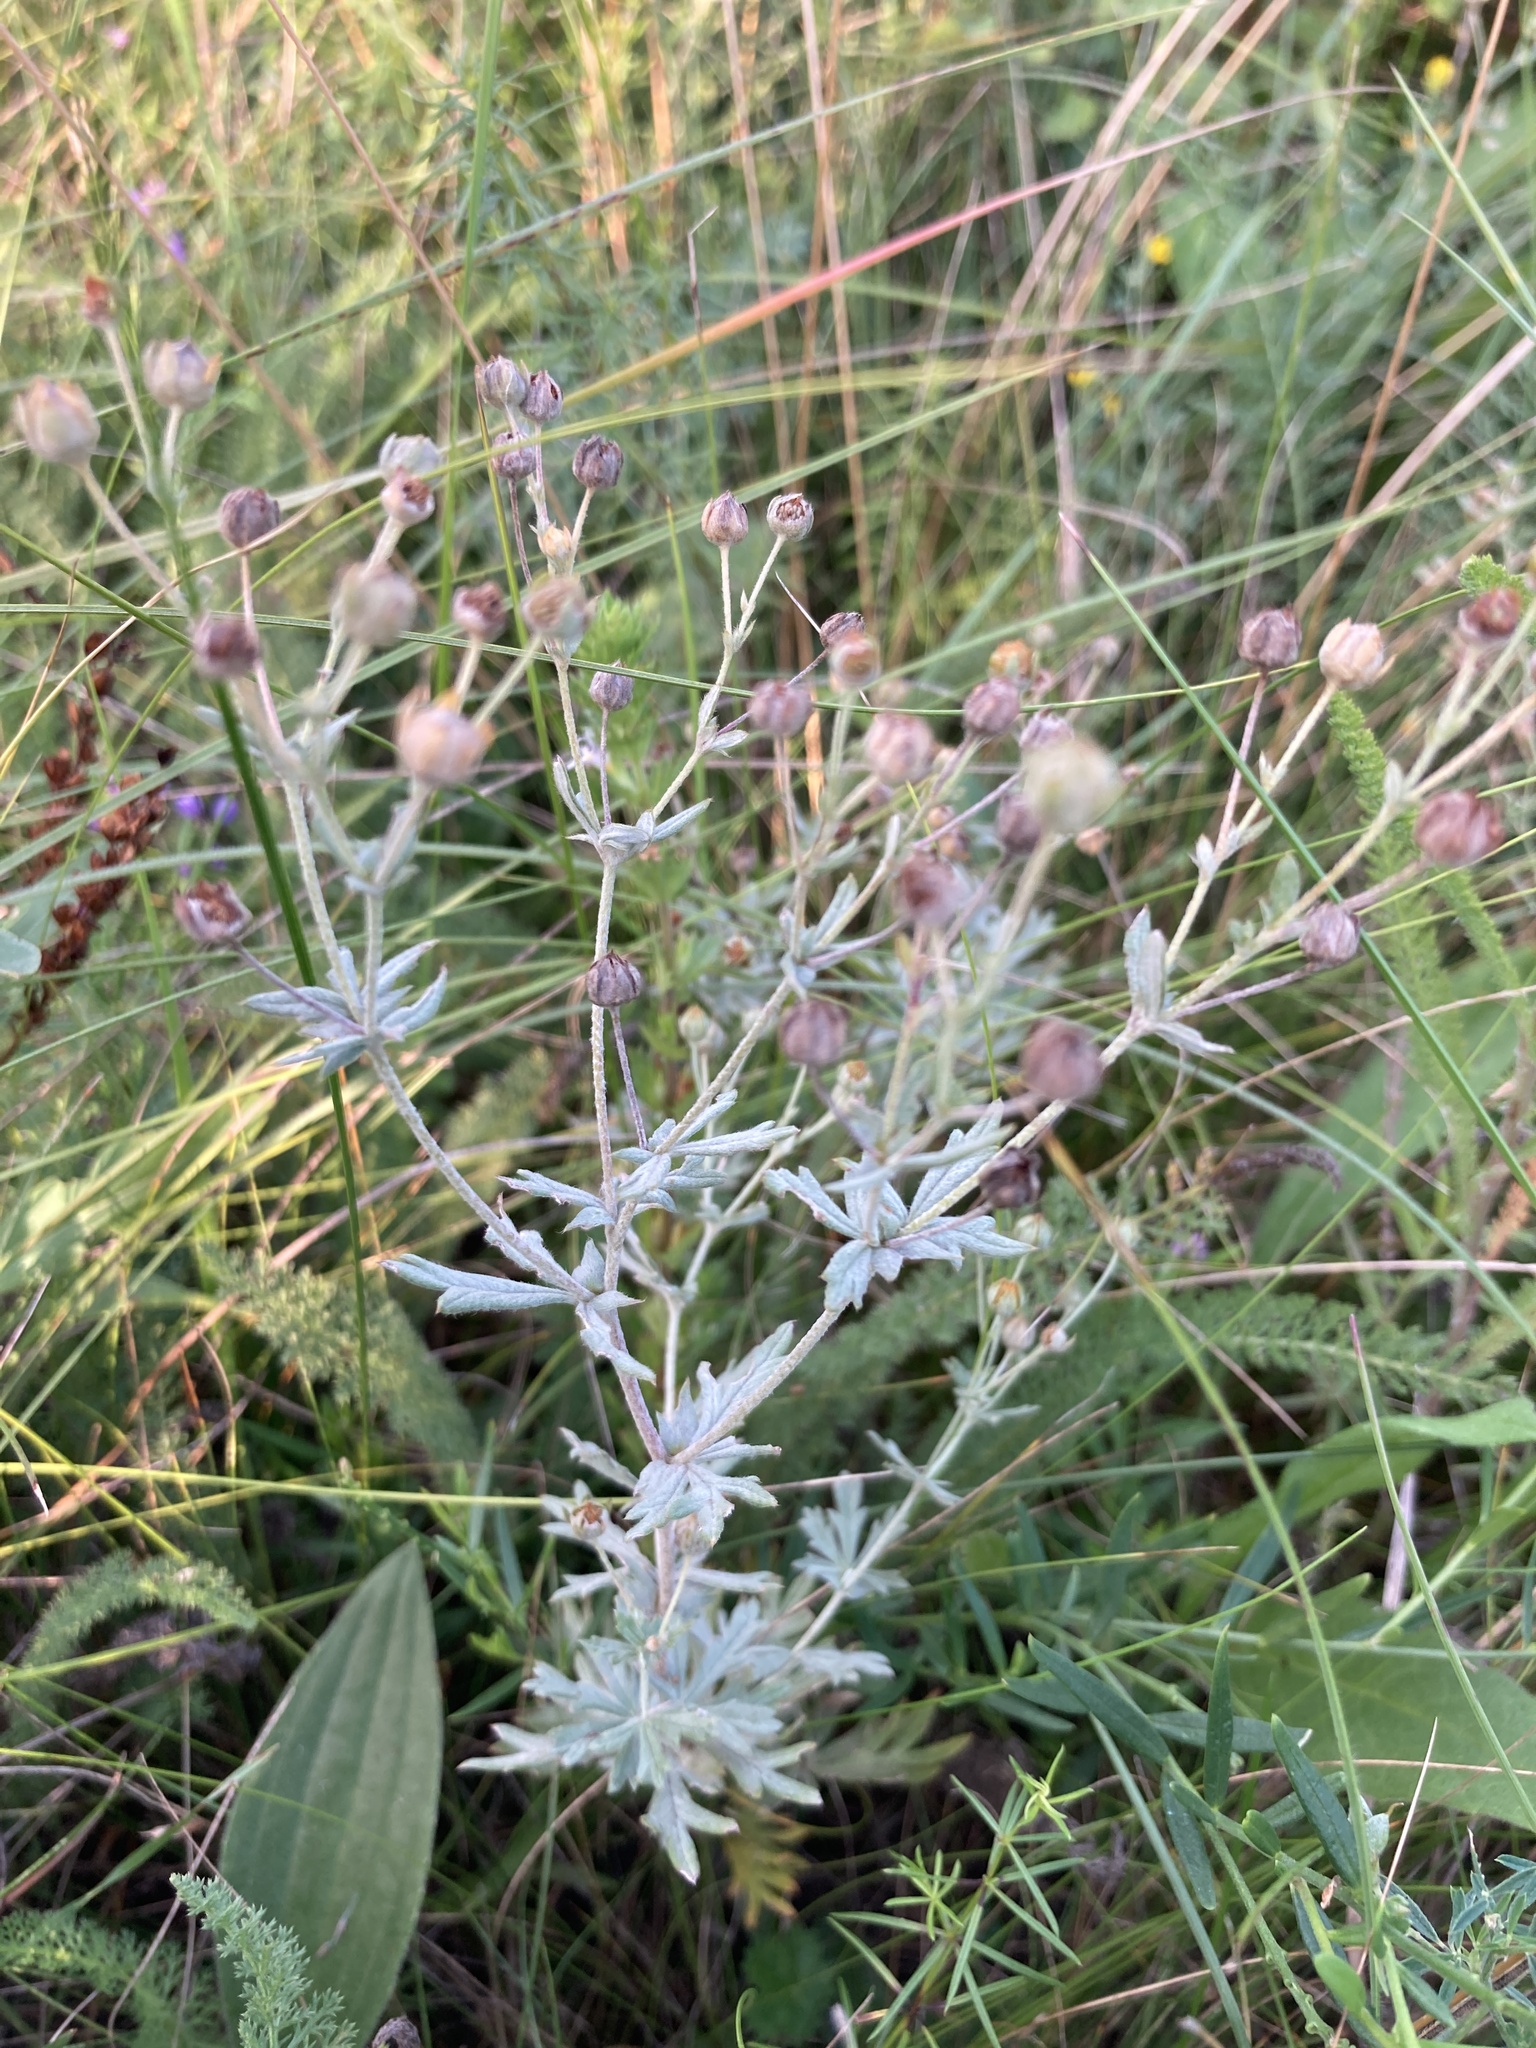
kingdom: Plantae
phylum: Tracheophyta
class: Magnoliopsida
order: Rosales
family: Rosaceae
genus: Potentilla
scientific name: Potentilla argentea
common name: Hoary cinquefoil
